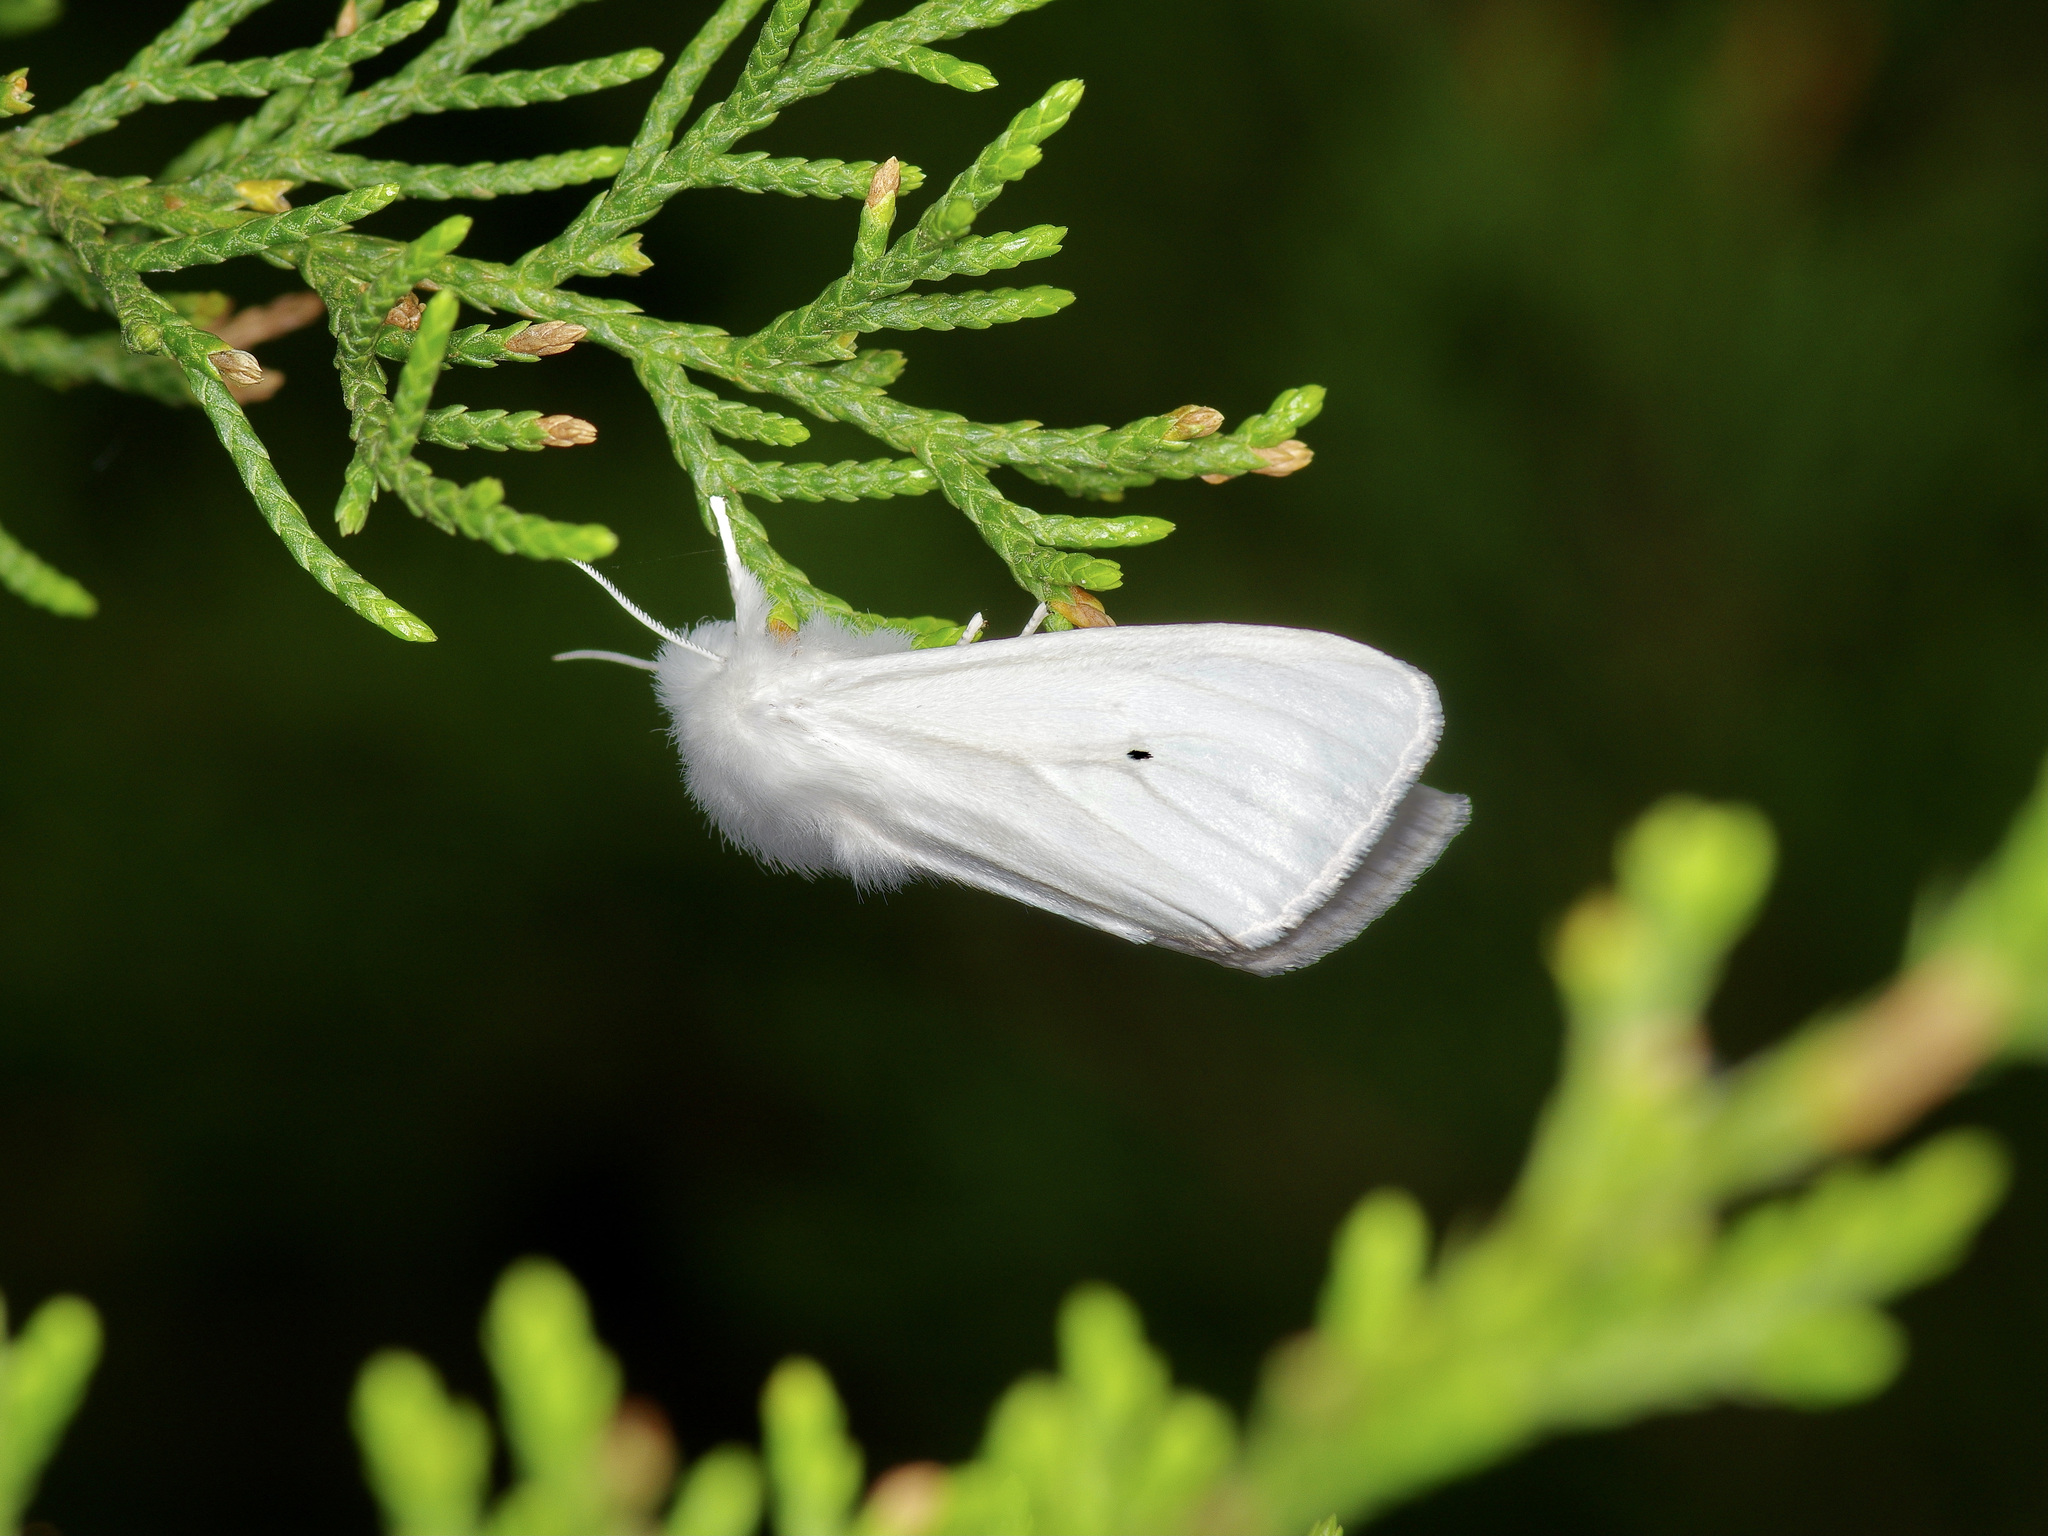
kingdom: Animalia
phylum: Arthropoda
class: Insecta
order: Lepidoptera
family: Erebidae
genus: Spilosoma
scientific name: Spilosoma virginica
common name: Virginia tiger moth
